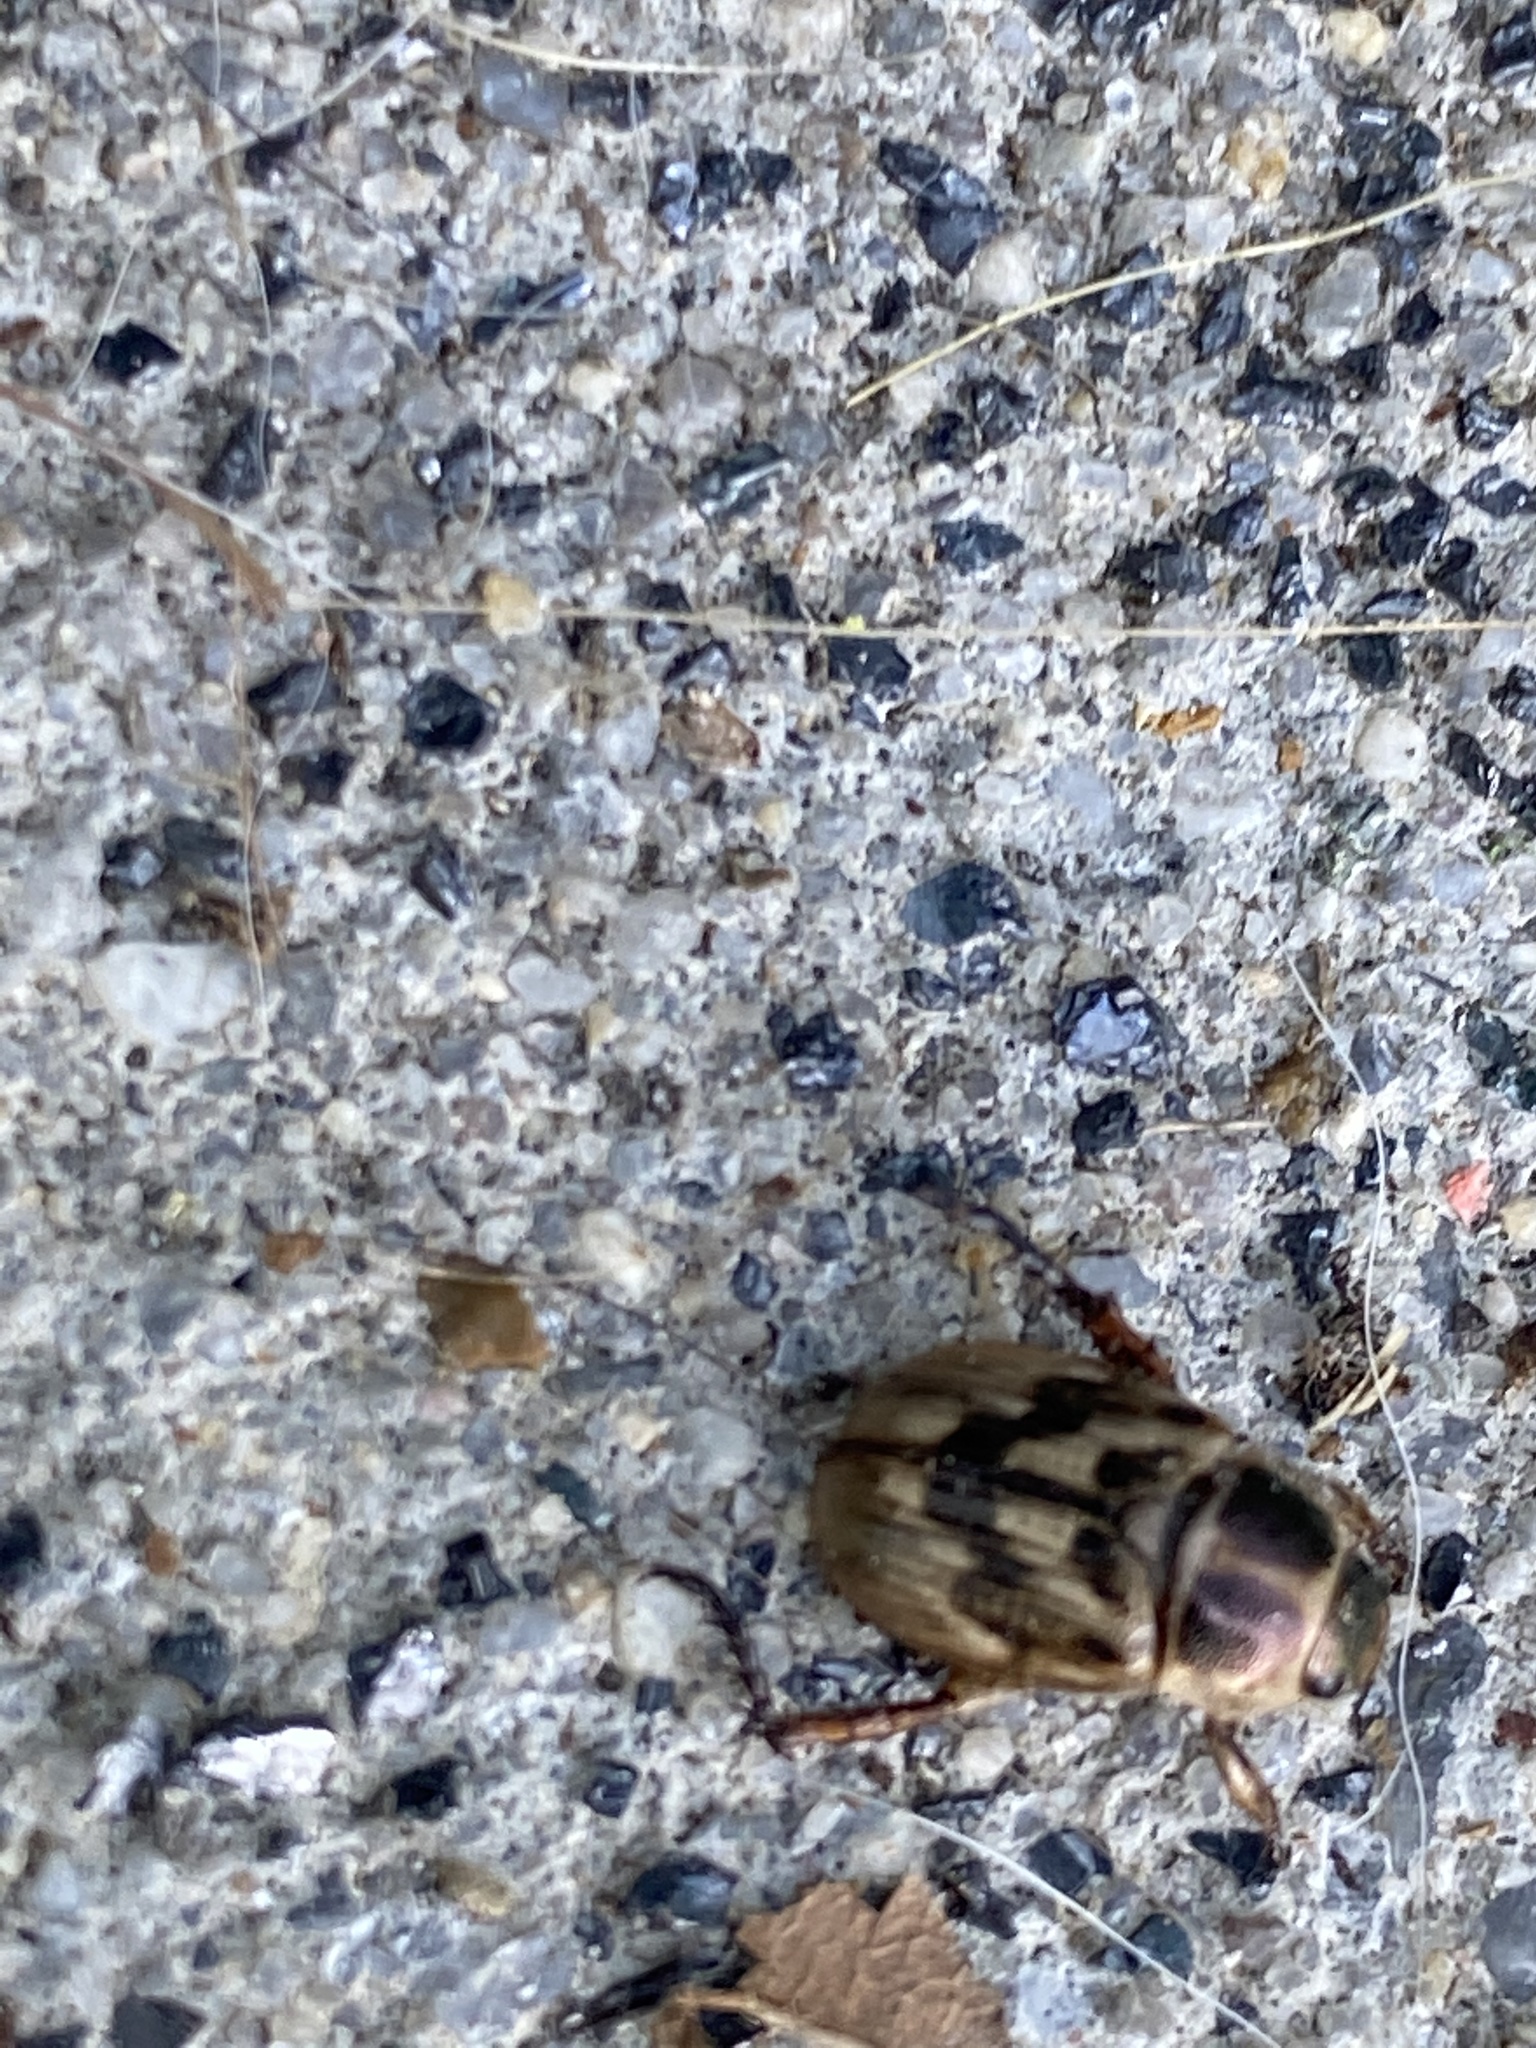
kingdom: Animalia
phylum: Arthropoda
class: Insecta
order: Coleoptera
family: Scarabaeidae
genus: Exomala
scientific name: Exomala orientalis
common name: Oriental beetle
